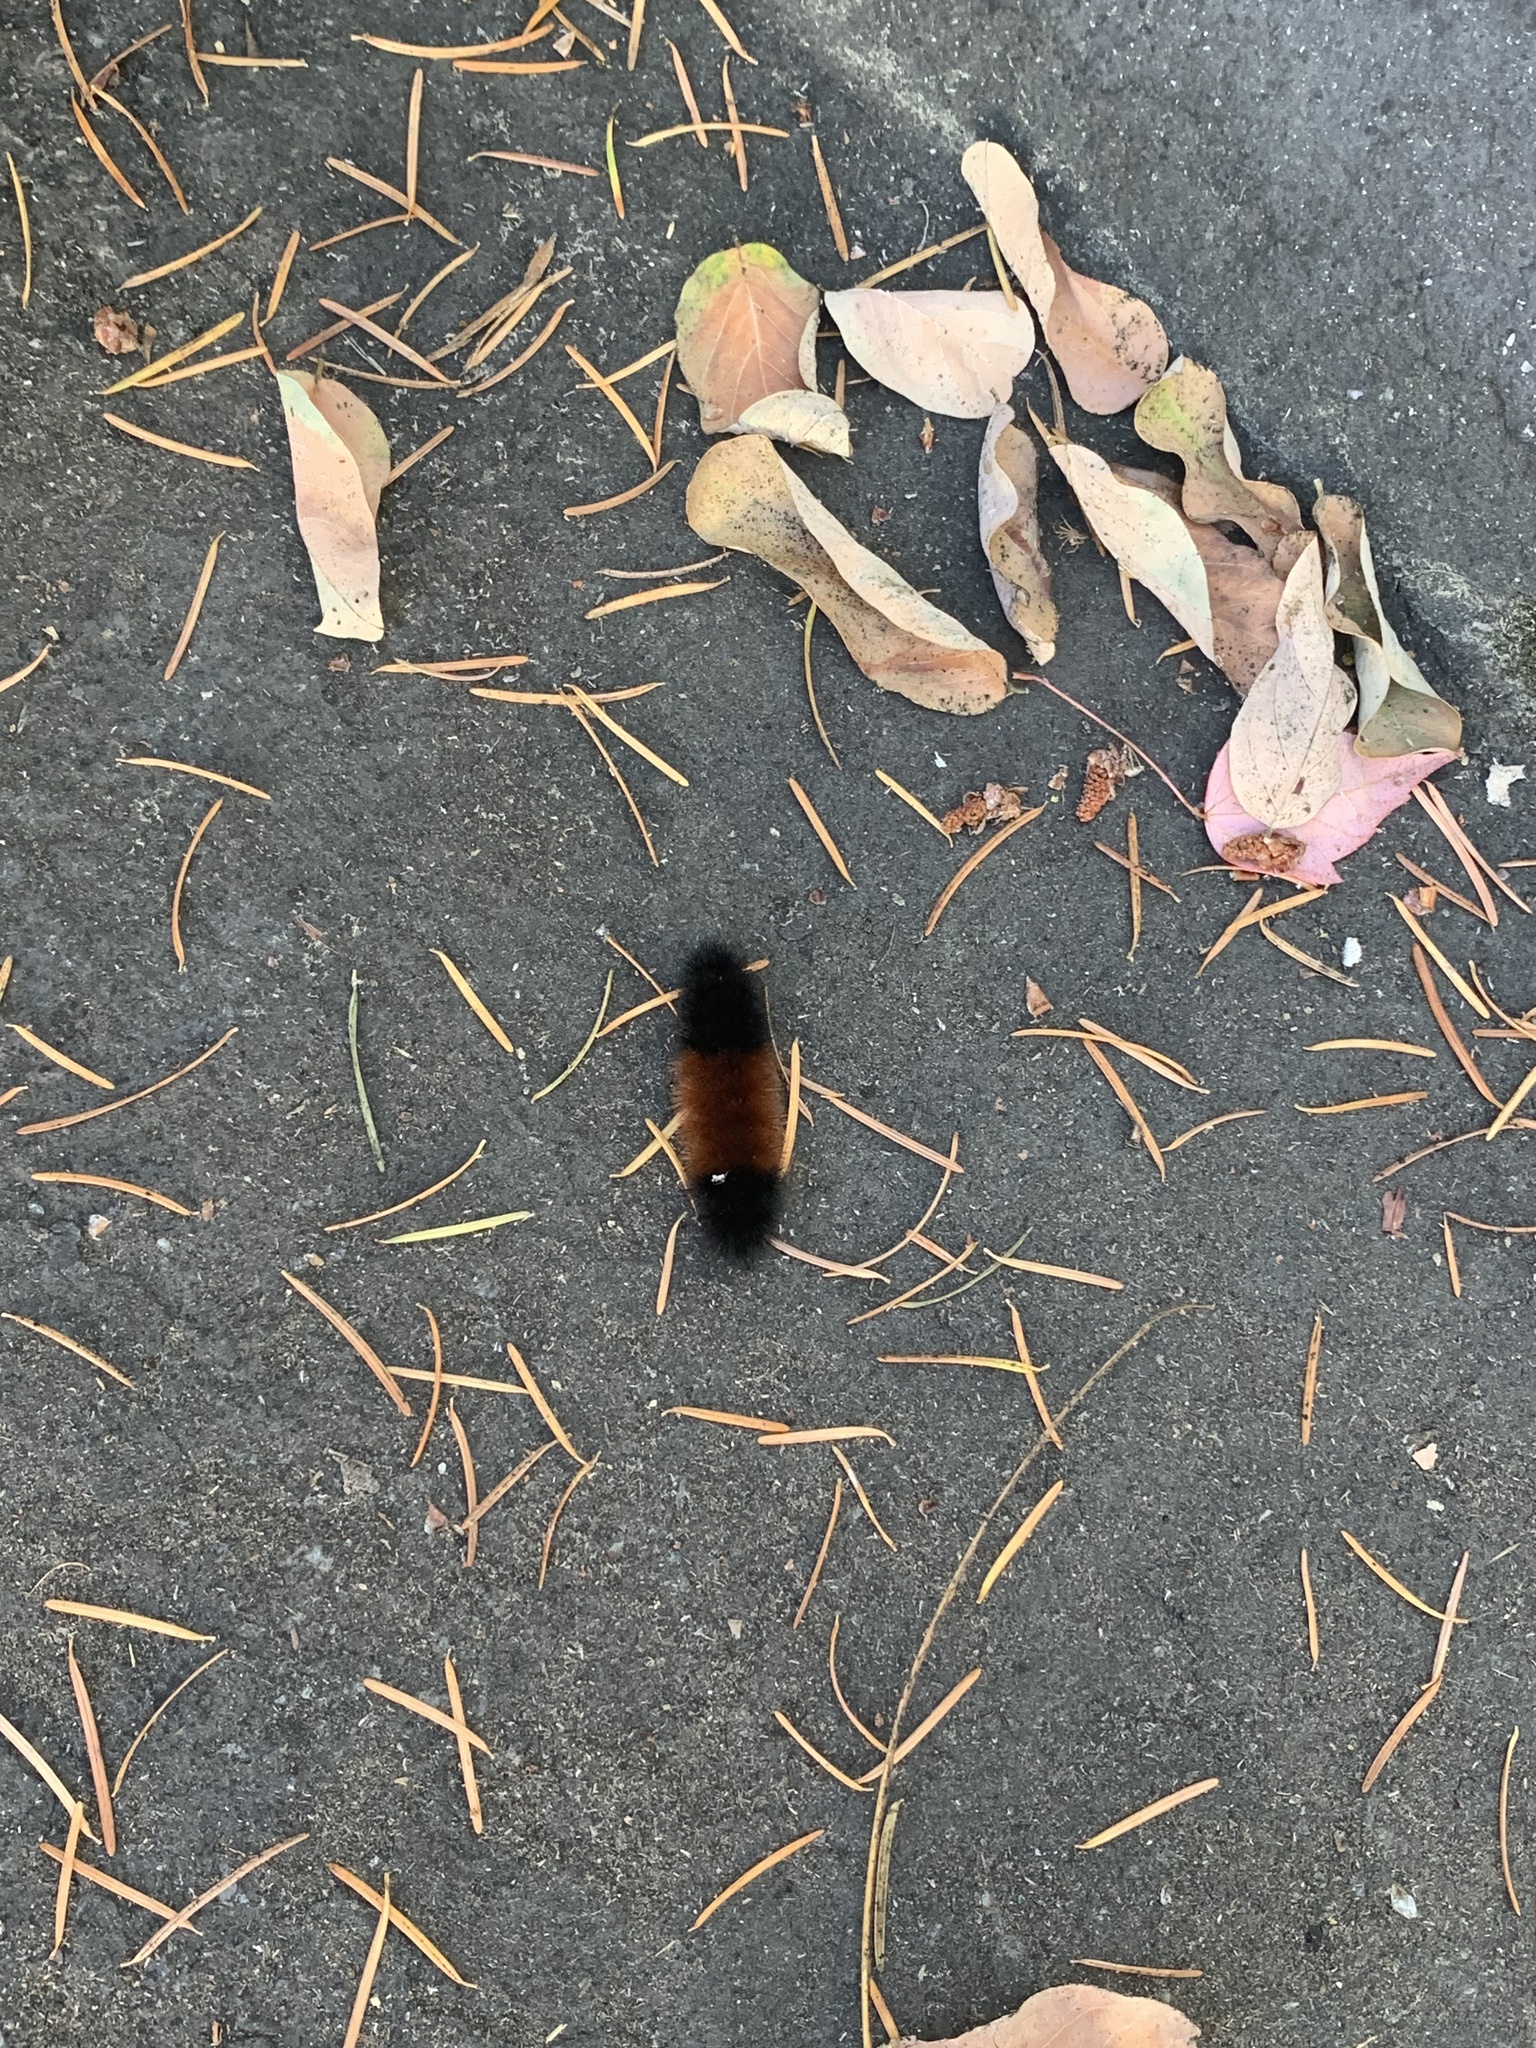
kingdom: Animalia
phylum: Arthropoda
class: Insecta
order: Lepidoptera
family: Erebidae
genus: Pyrrharctia
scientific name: Pyrrharctia isabella
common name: Isabella tiger moth
